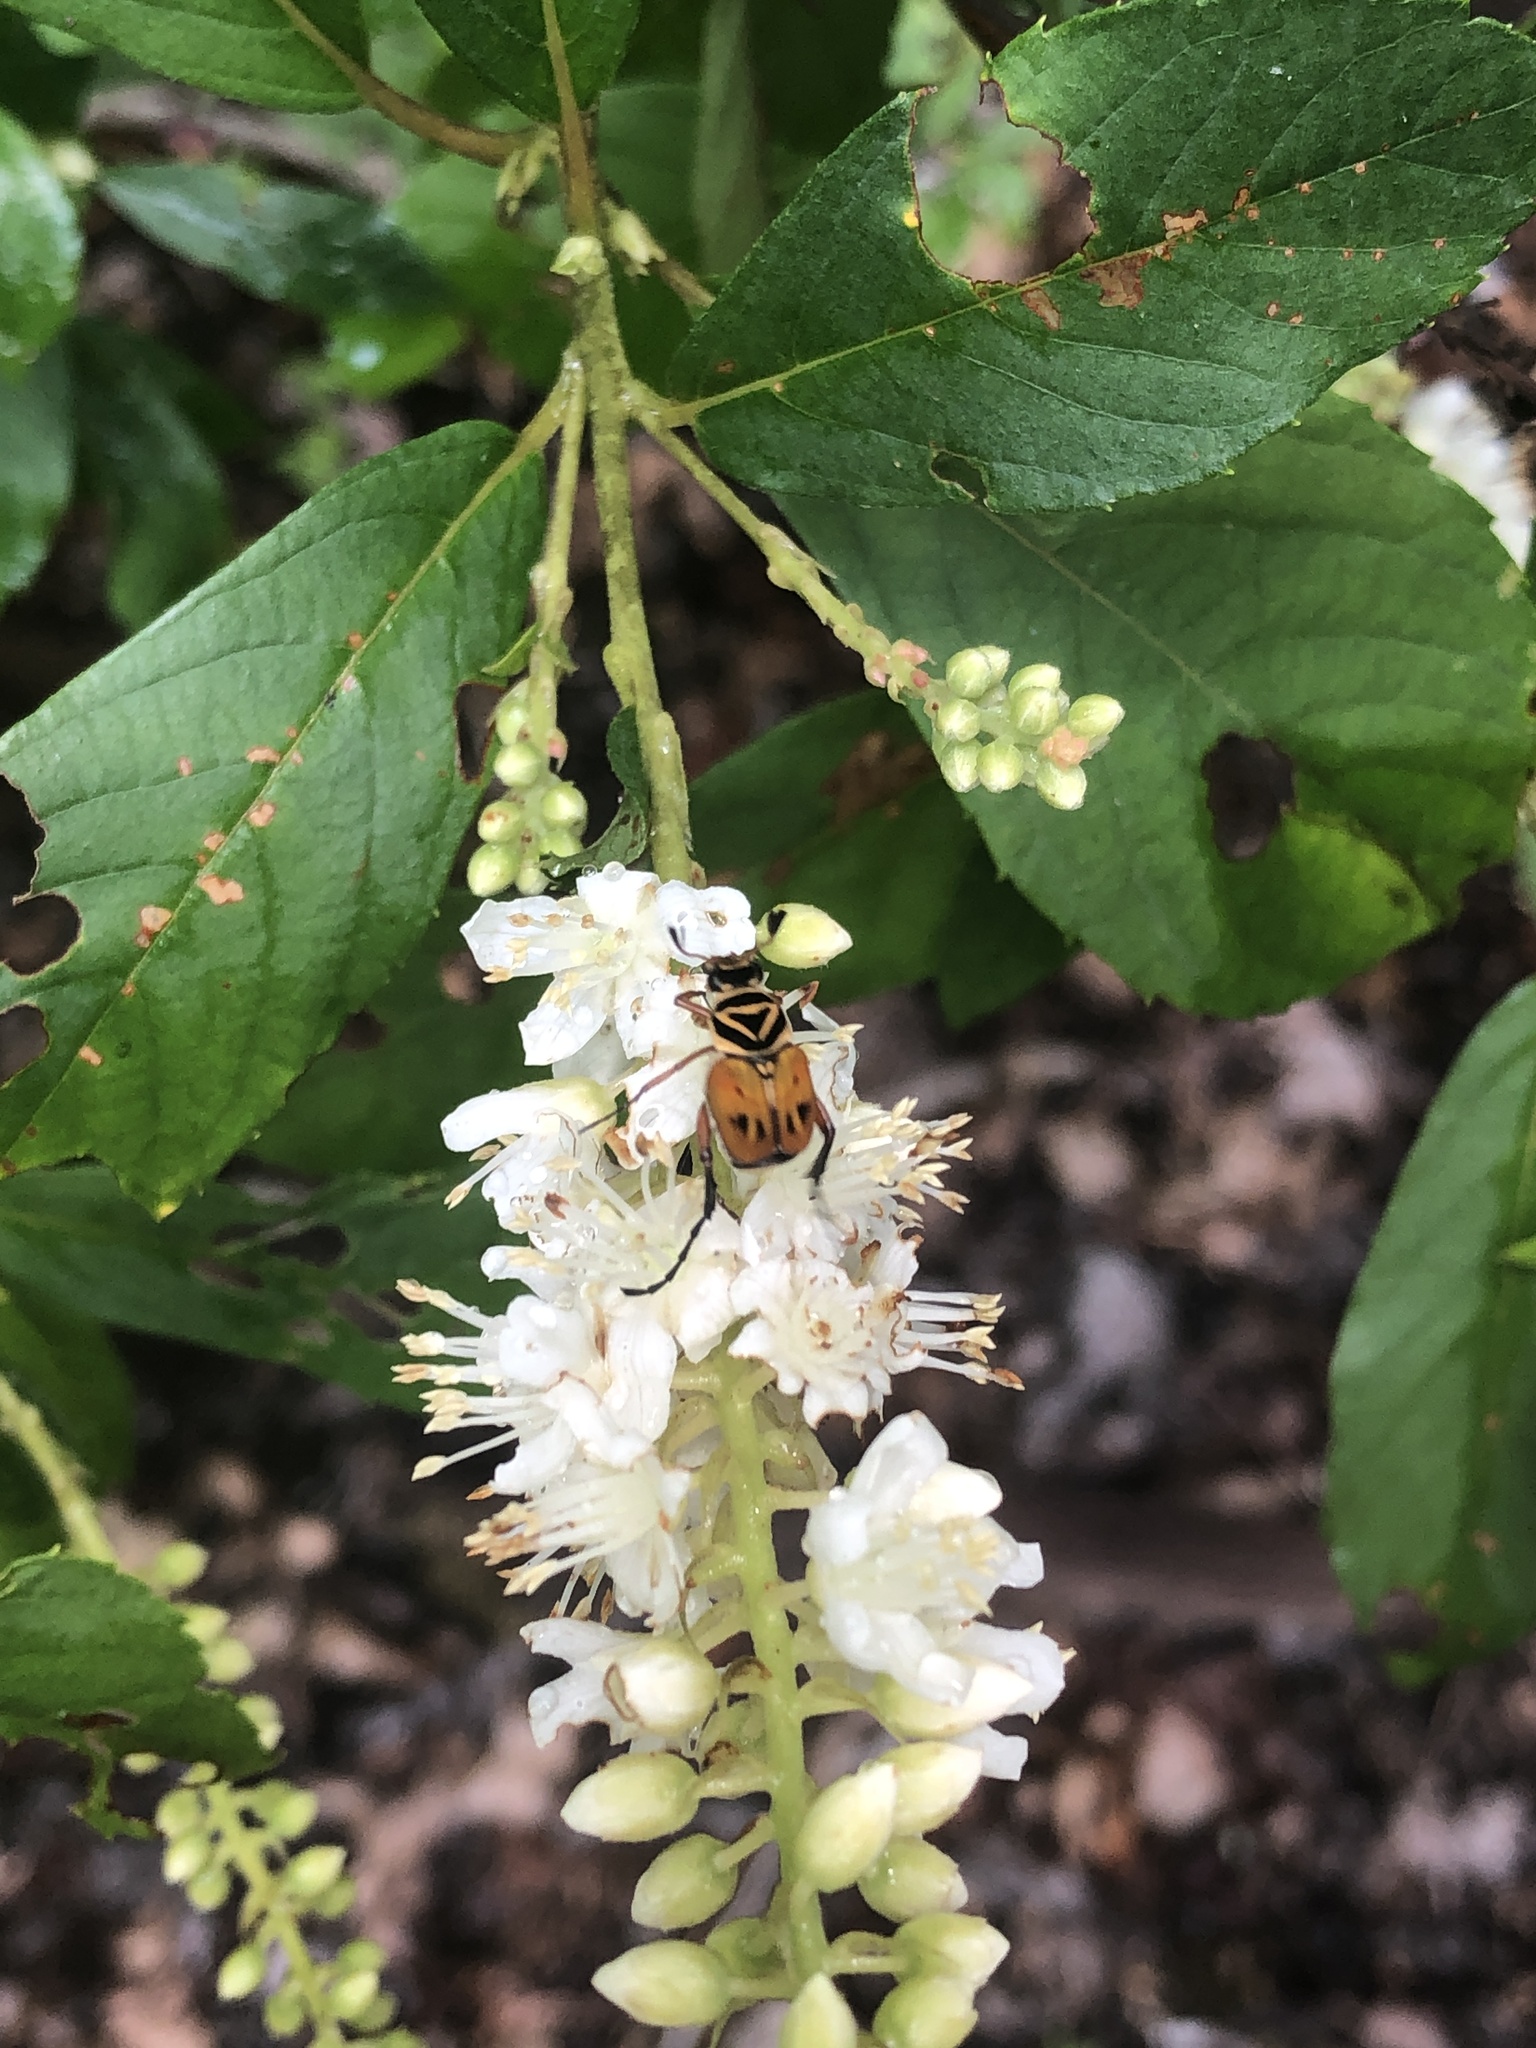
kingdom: Animalia
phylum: Arthropoda
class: Insecta
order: Coleoptera
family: Scarabaeidae
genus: Trigonopeltastes
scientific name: Trigonopeltastes delta
